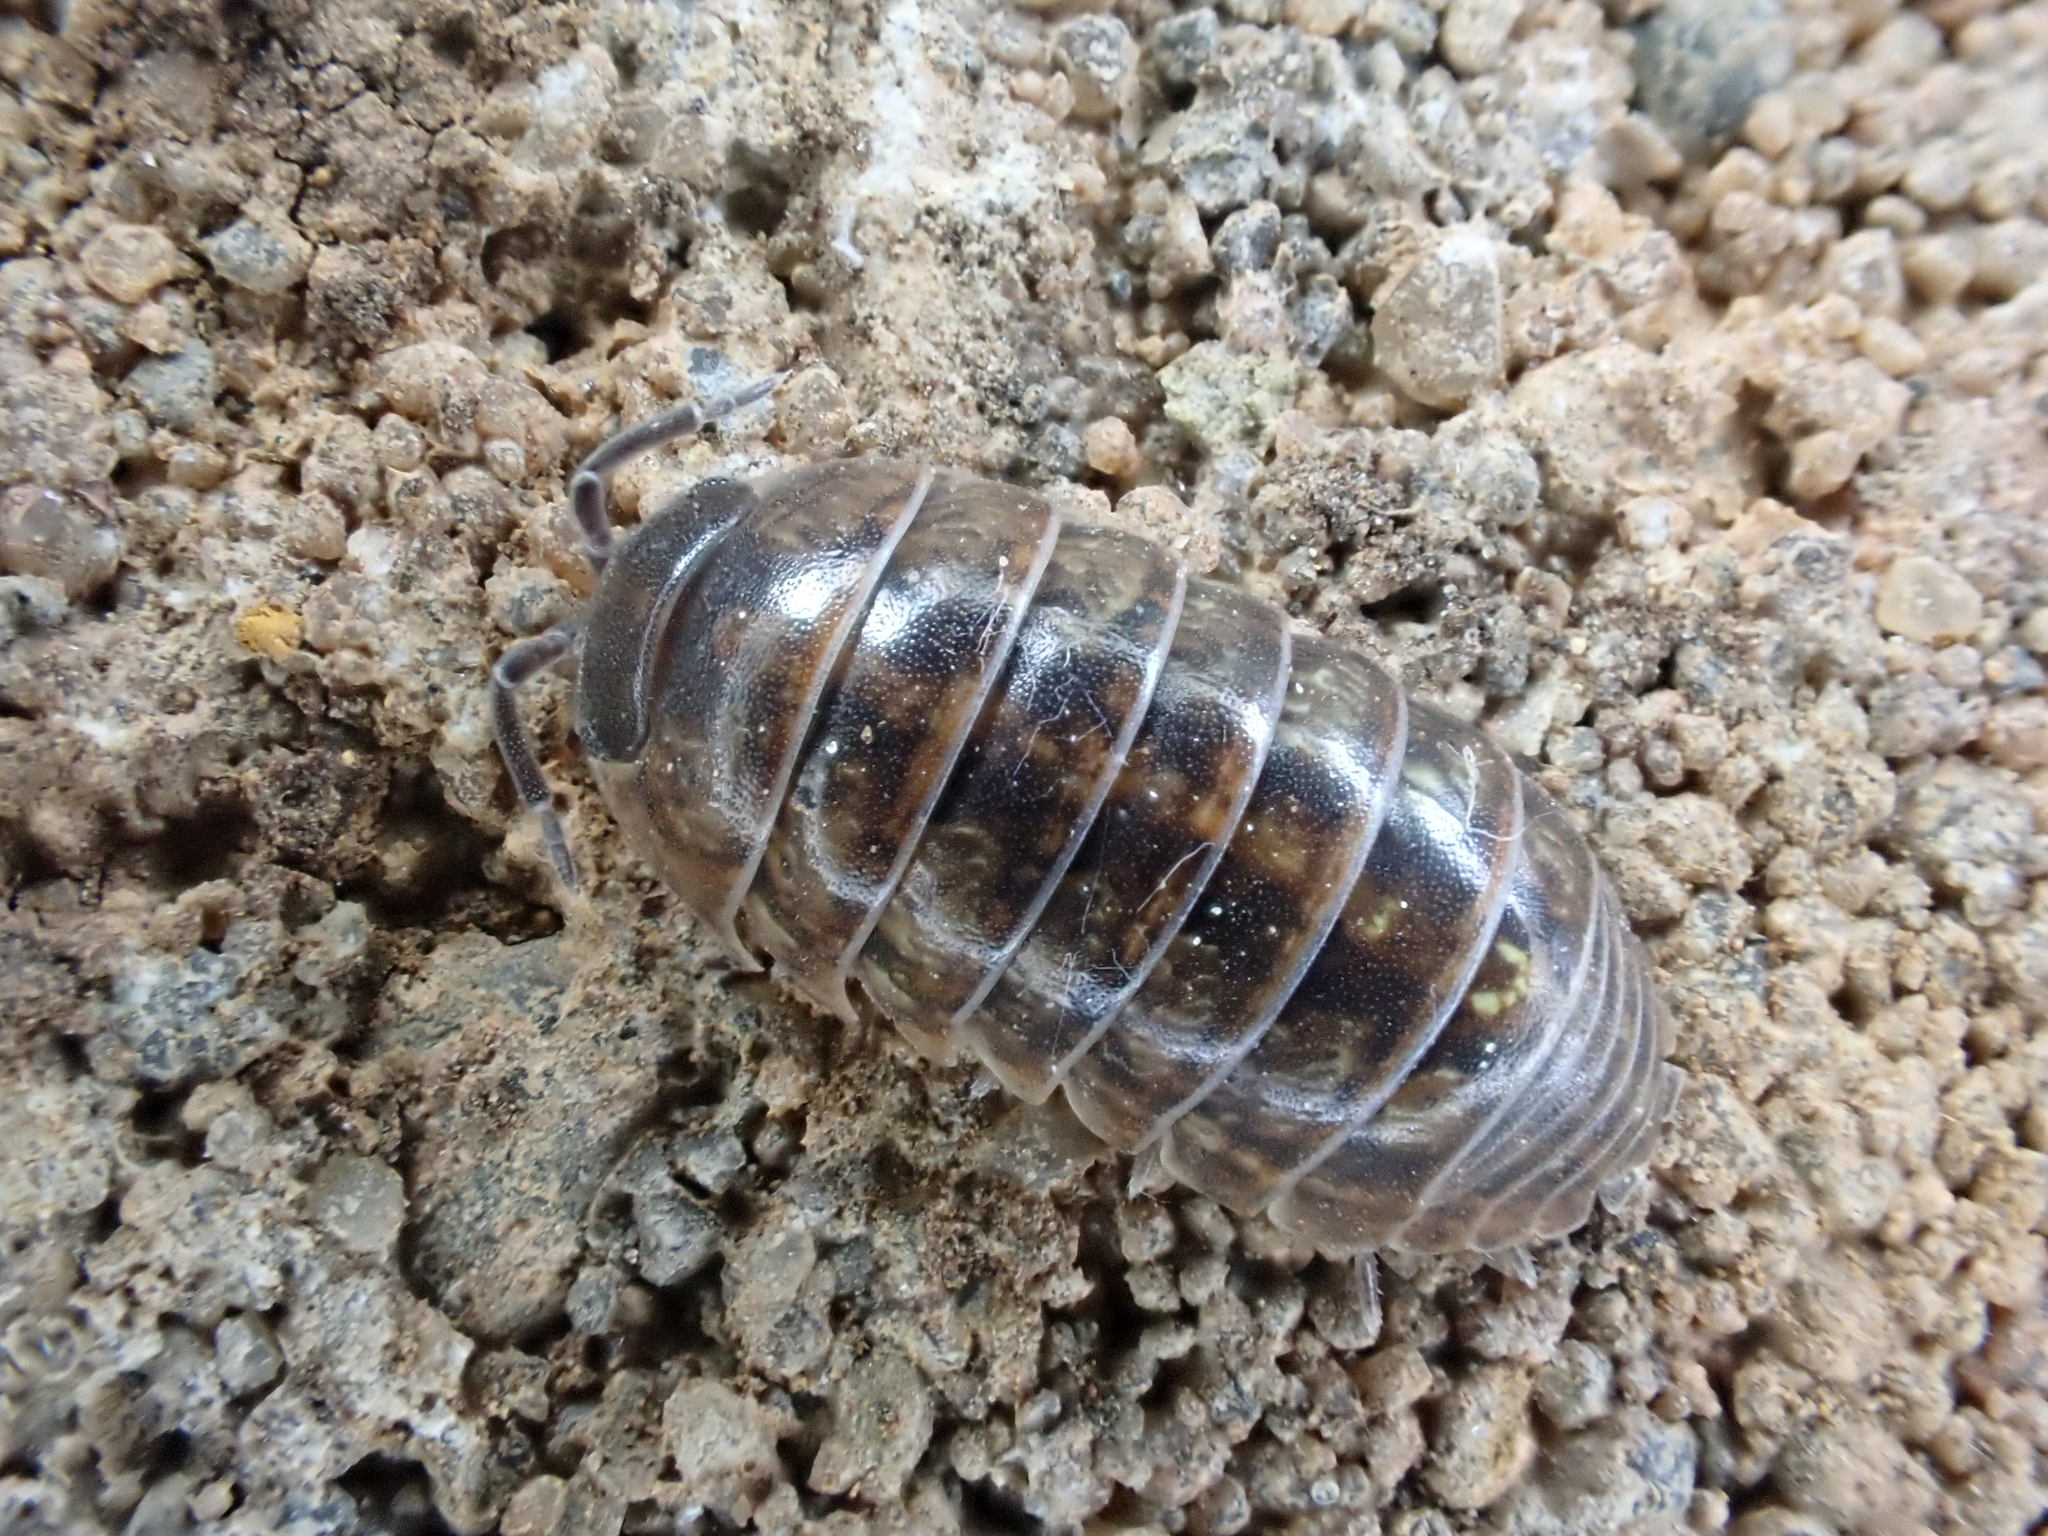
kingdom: Animalia
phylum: Arthropoda
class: Malacostraca
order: Isopoda
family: Armadillidiidae
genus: Armadillidium
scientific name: Armadillidium vulgare
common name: Common pill woodlouse
